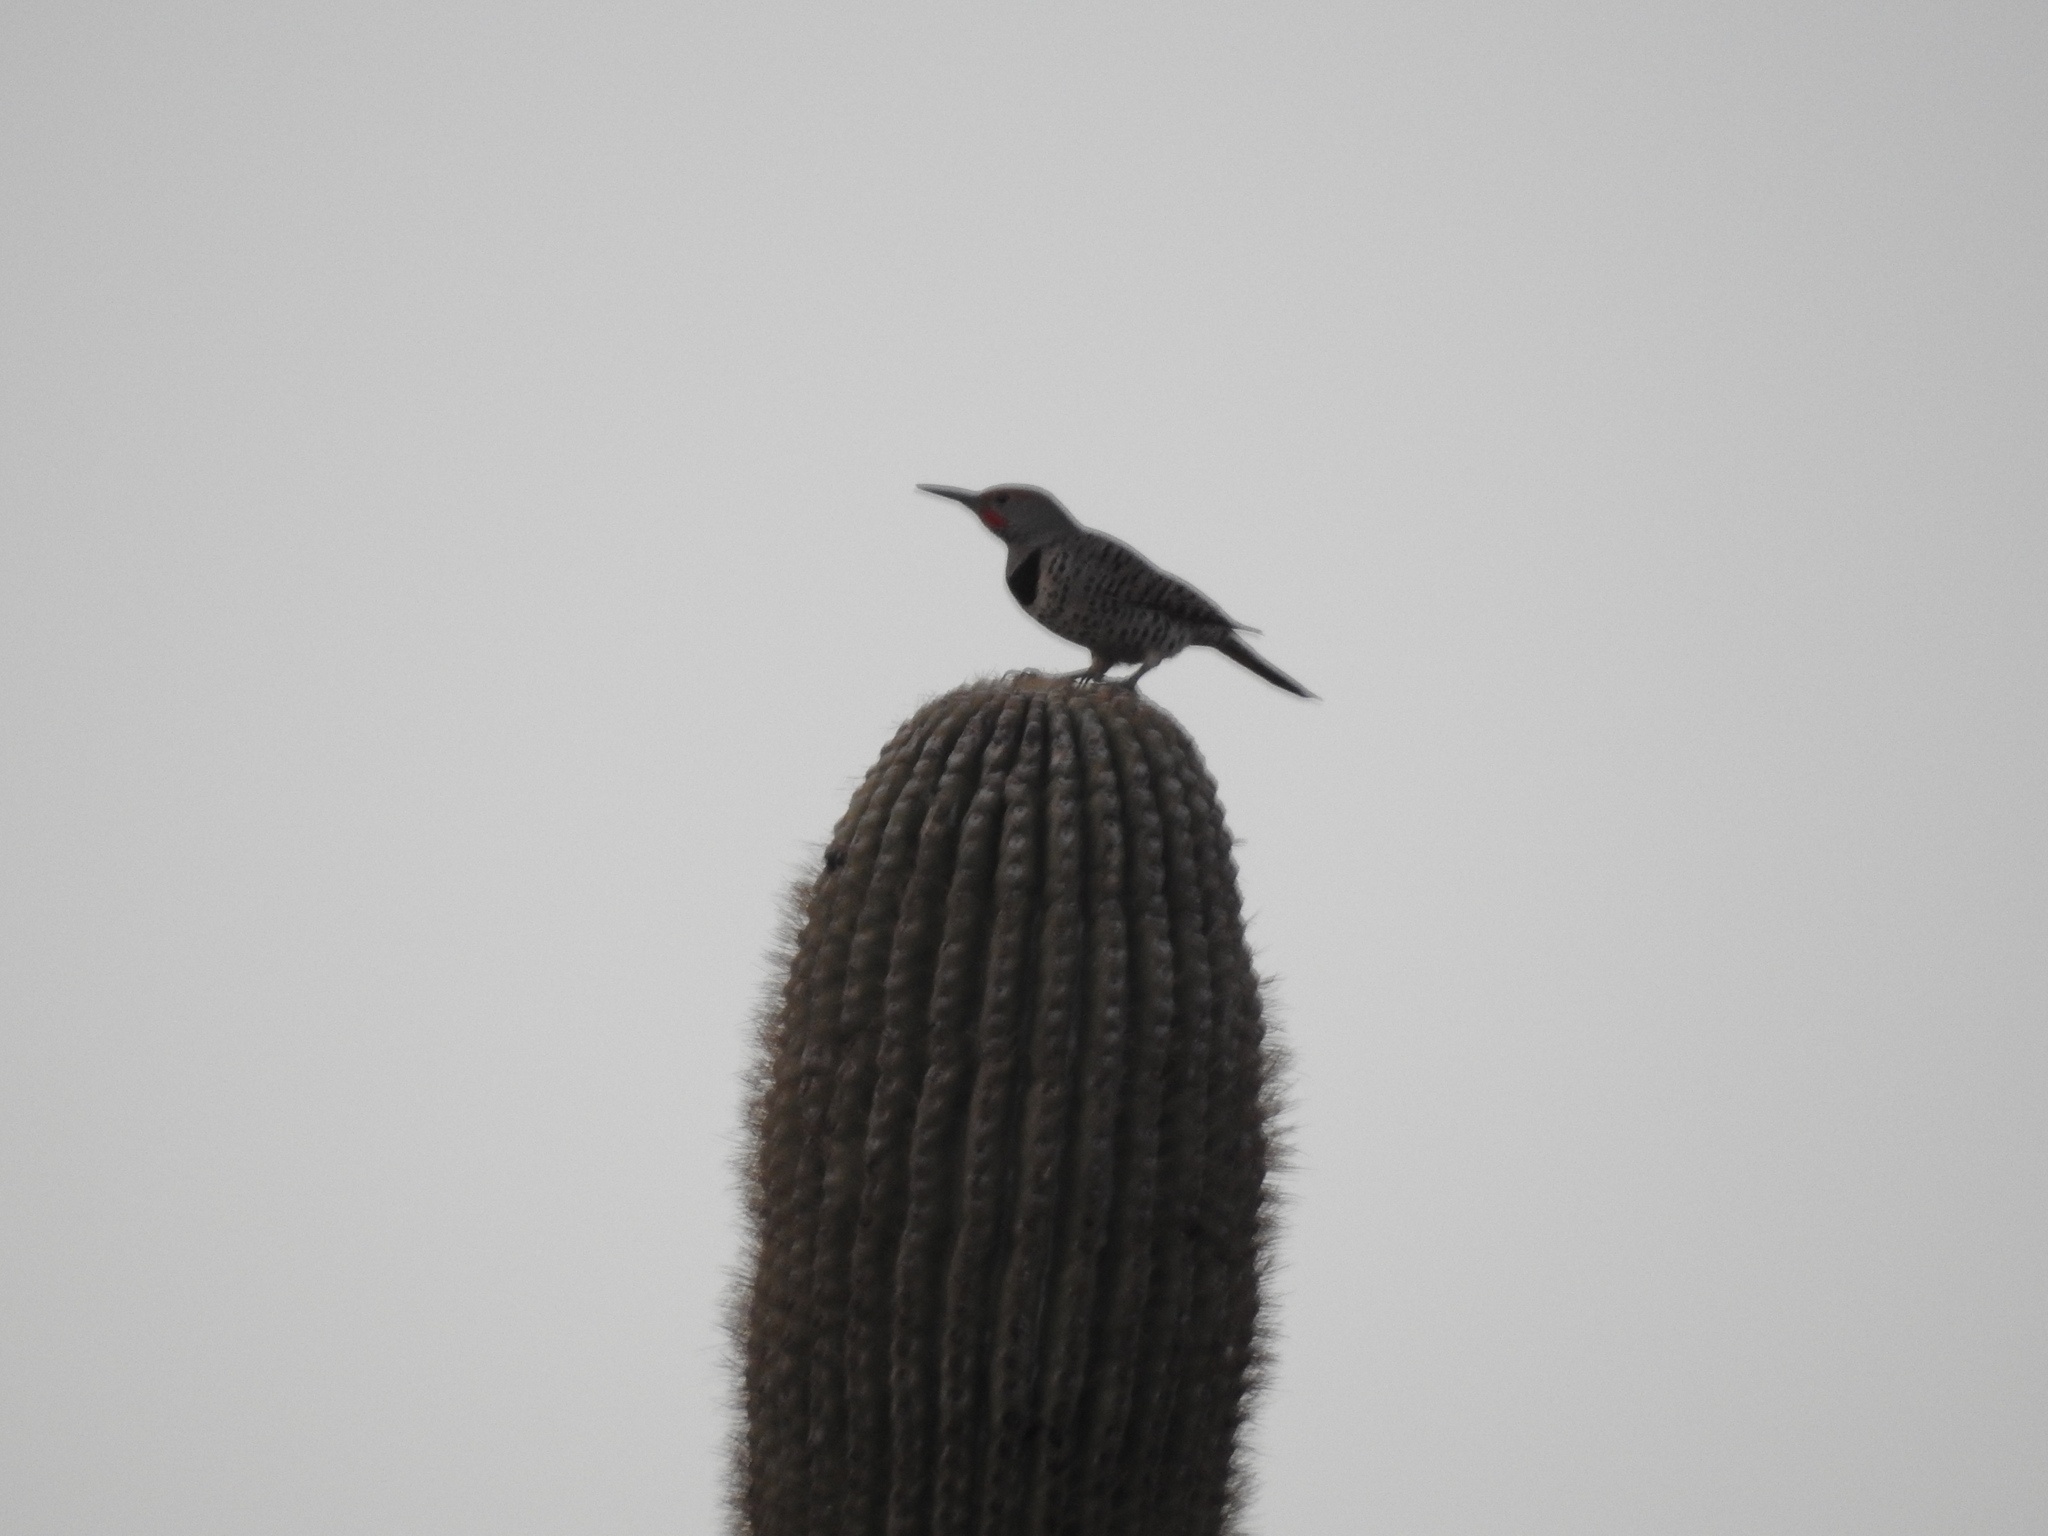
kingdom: Animalia
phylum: Chordata
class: Aves
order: Piciformes
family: Picidae
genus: Colaptes
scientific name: Colaptes chrysoides
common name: Gilded flicker
